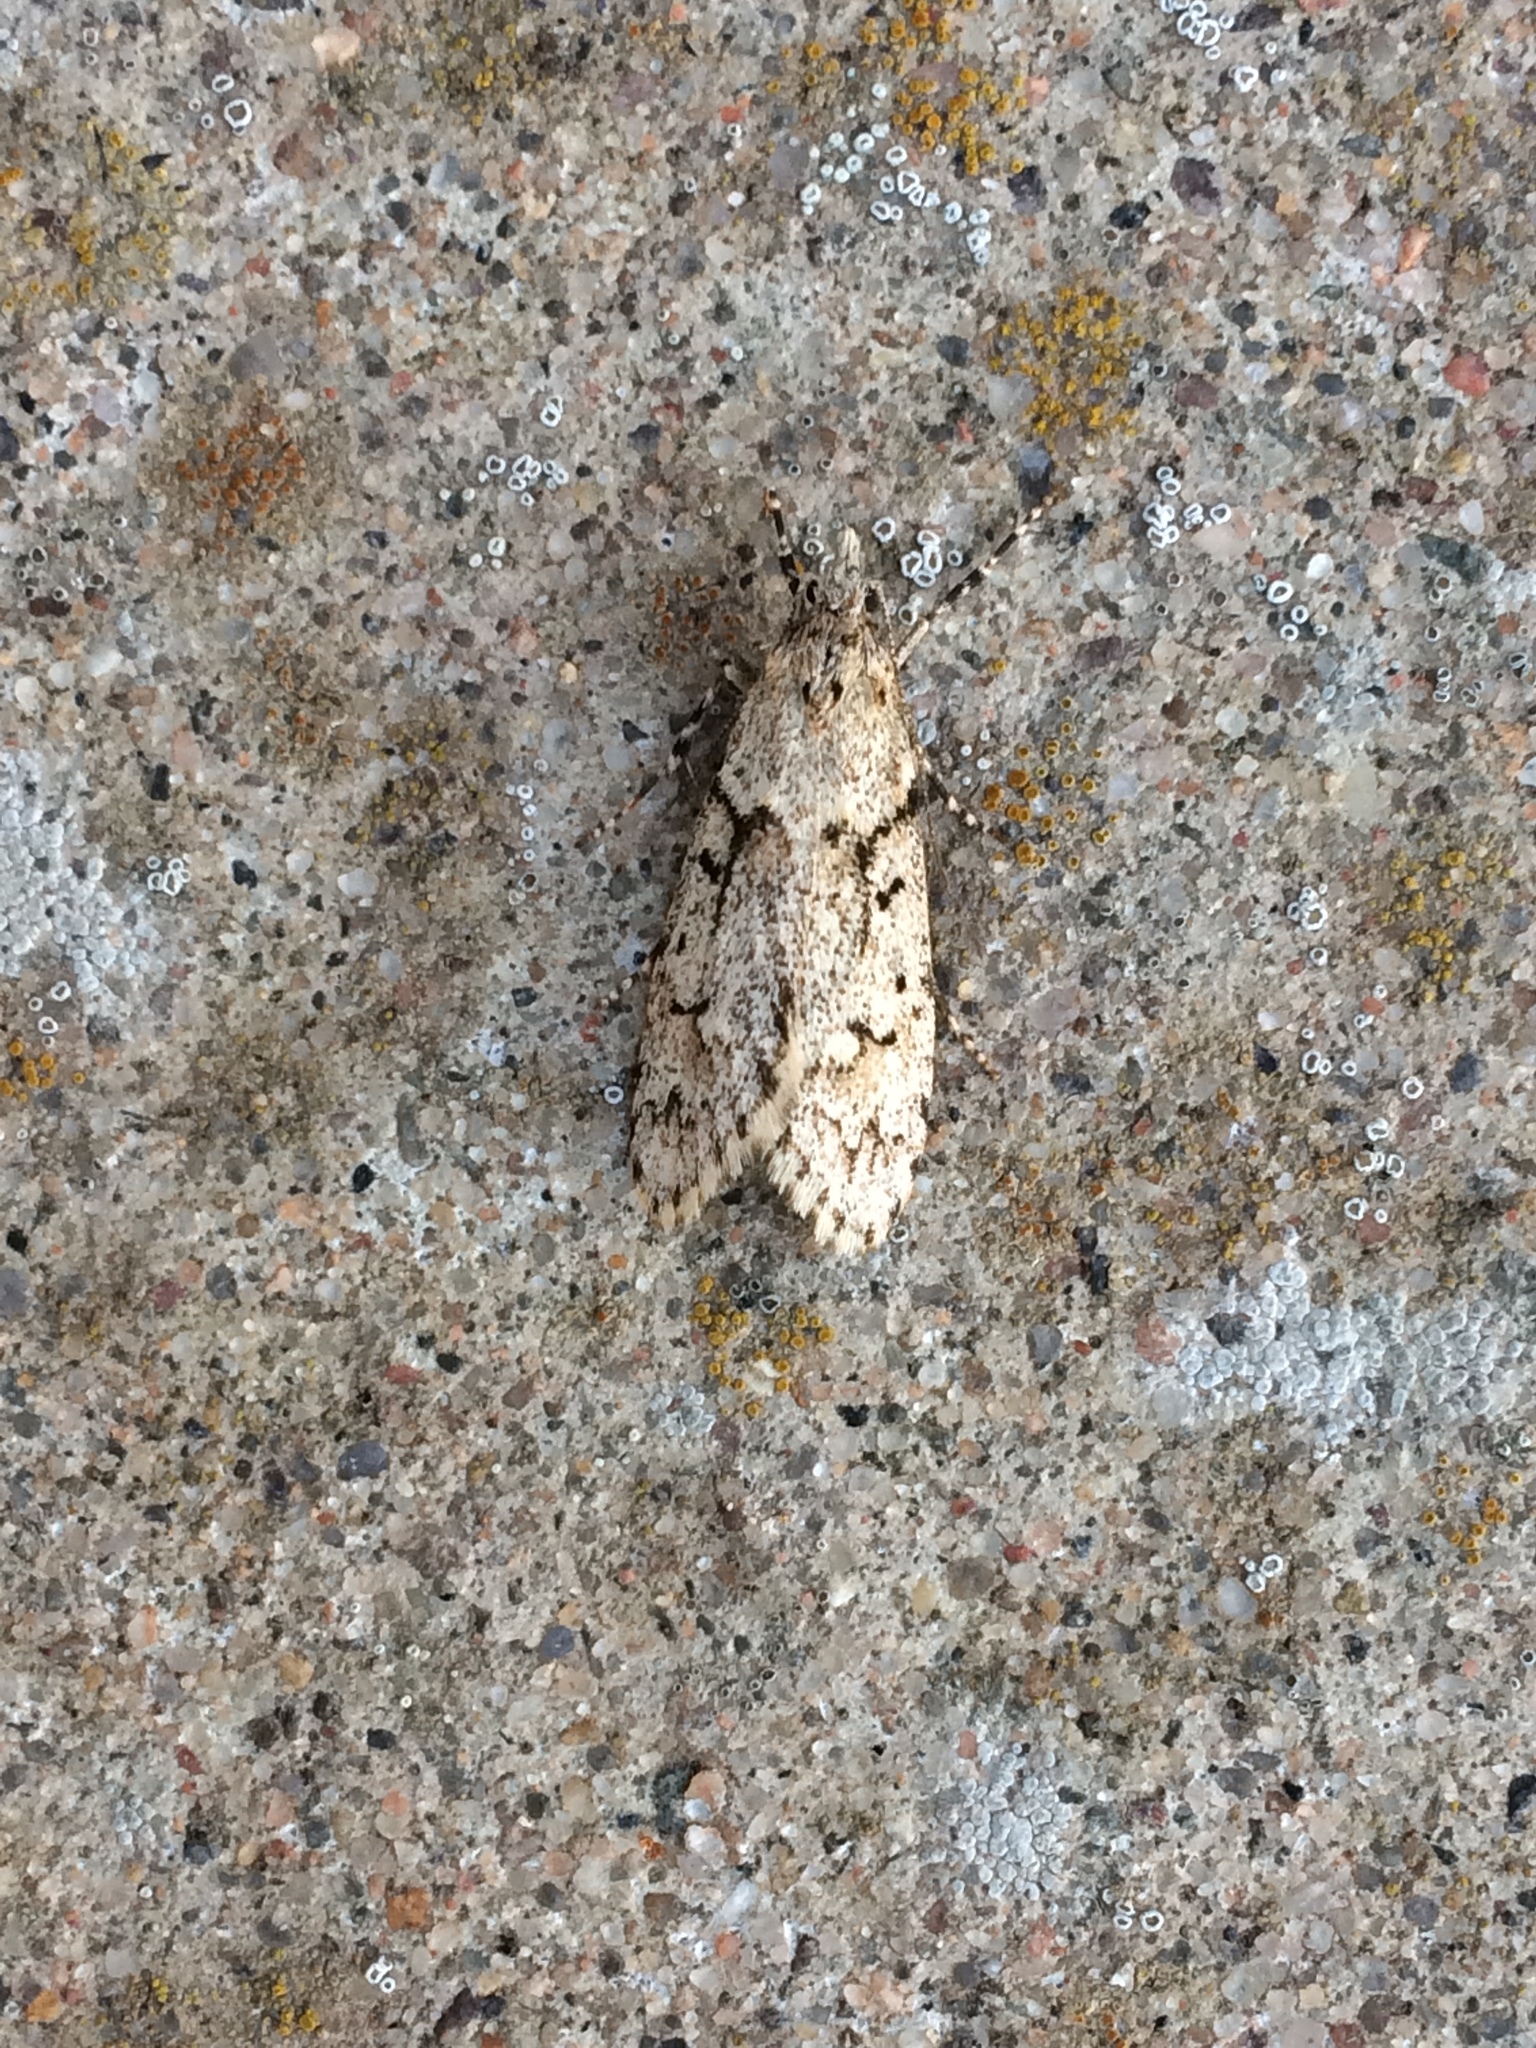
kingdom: Animalia
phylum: Arthropoda
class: Insecta
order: Lepidoptera
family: Lypusidae
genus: Diurnea
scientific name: Diurnea fagella
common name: March tubic
